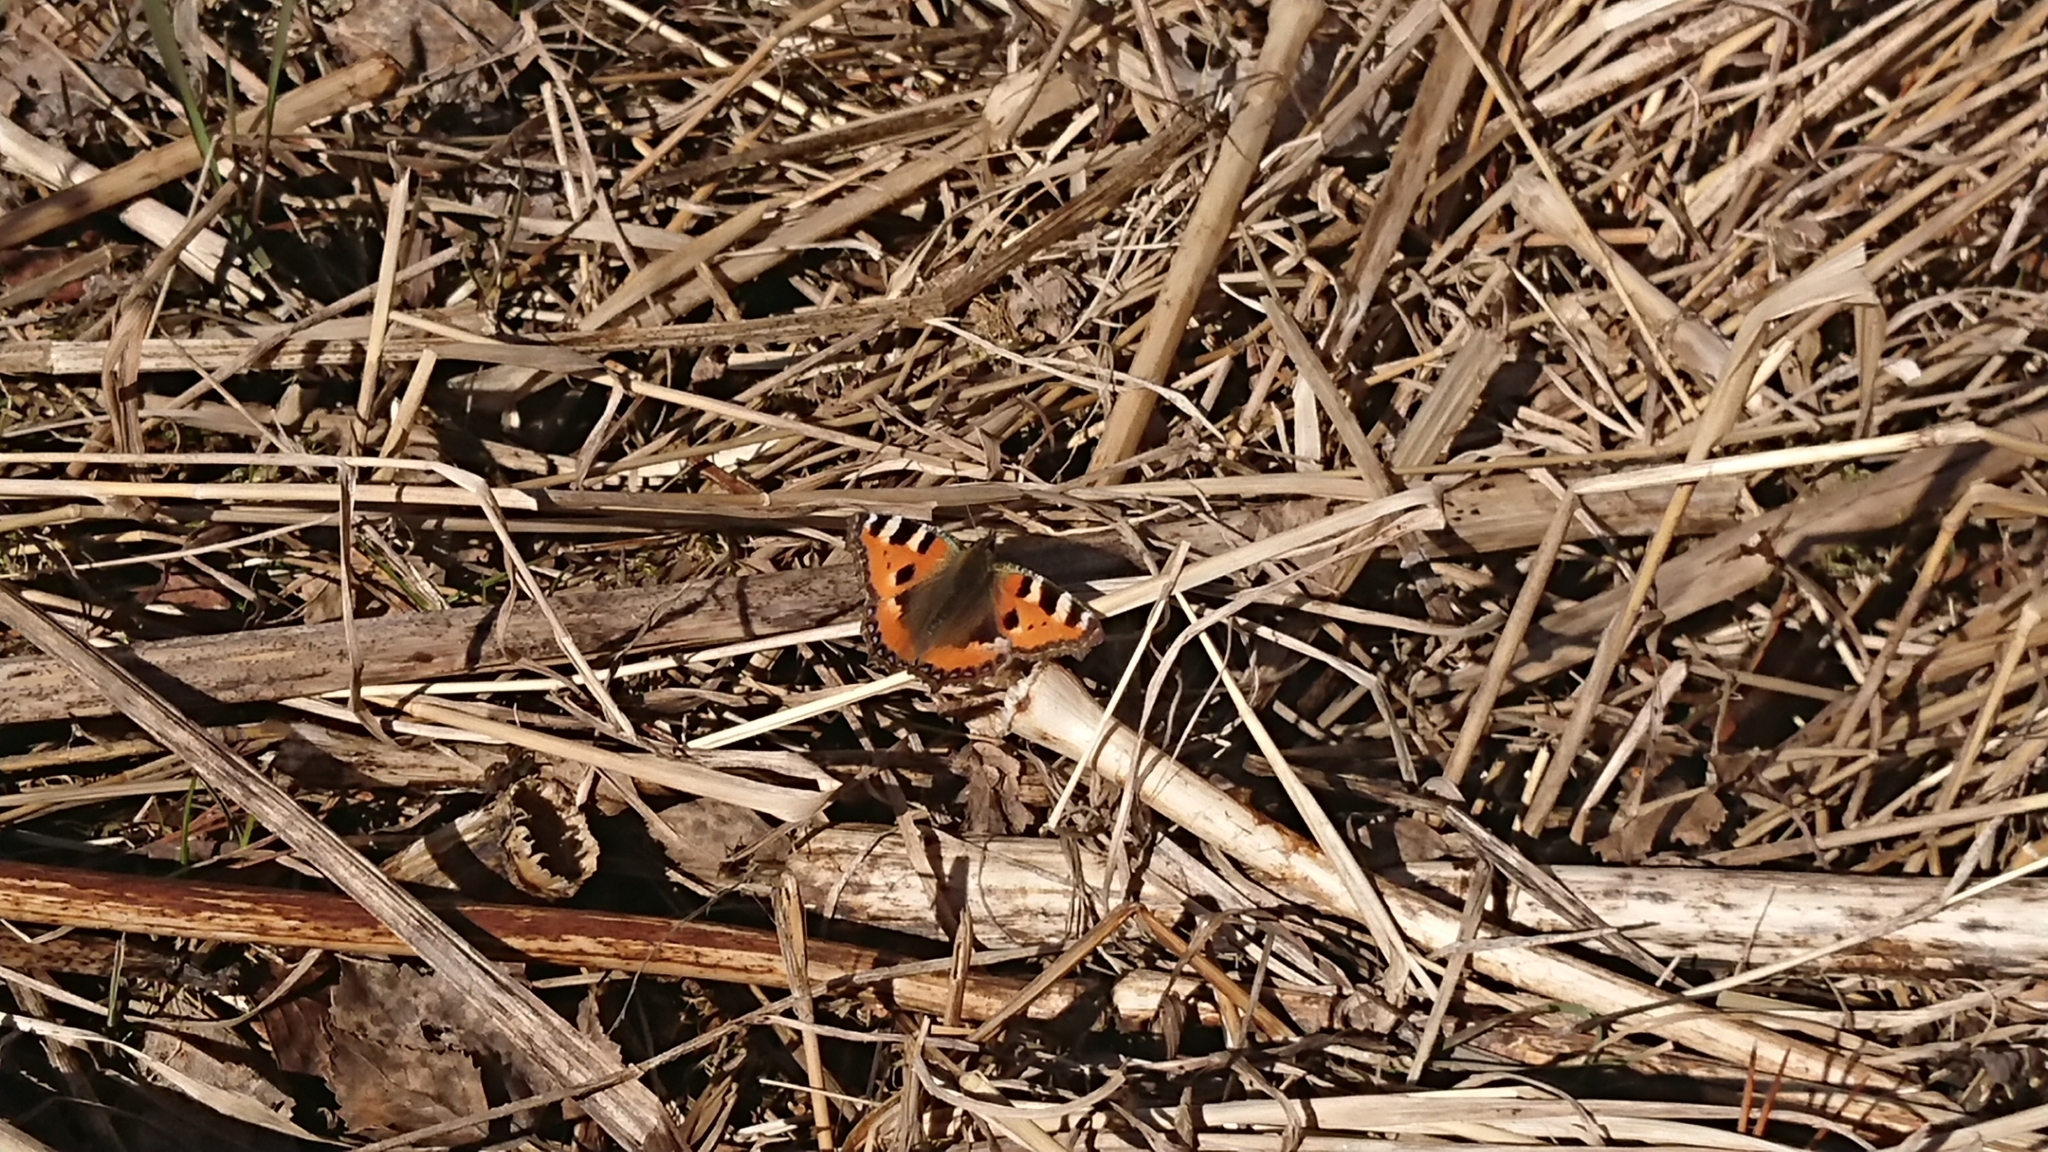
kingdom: Animalia
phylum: Arthropoda
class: Insecta
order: Lepidoptera
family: Nymphalidae
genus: Aglais
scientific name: Aglais urticae
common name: Small tortoiseshell
